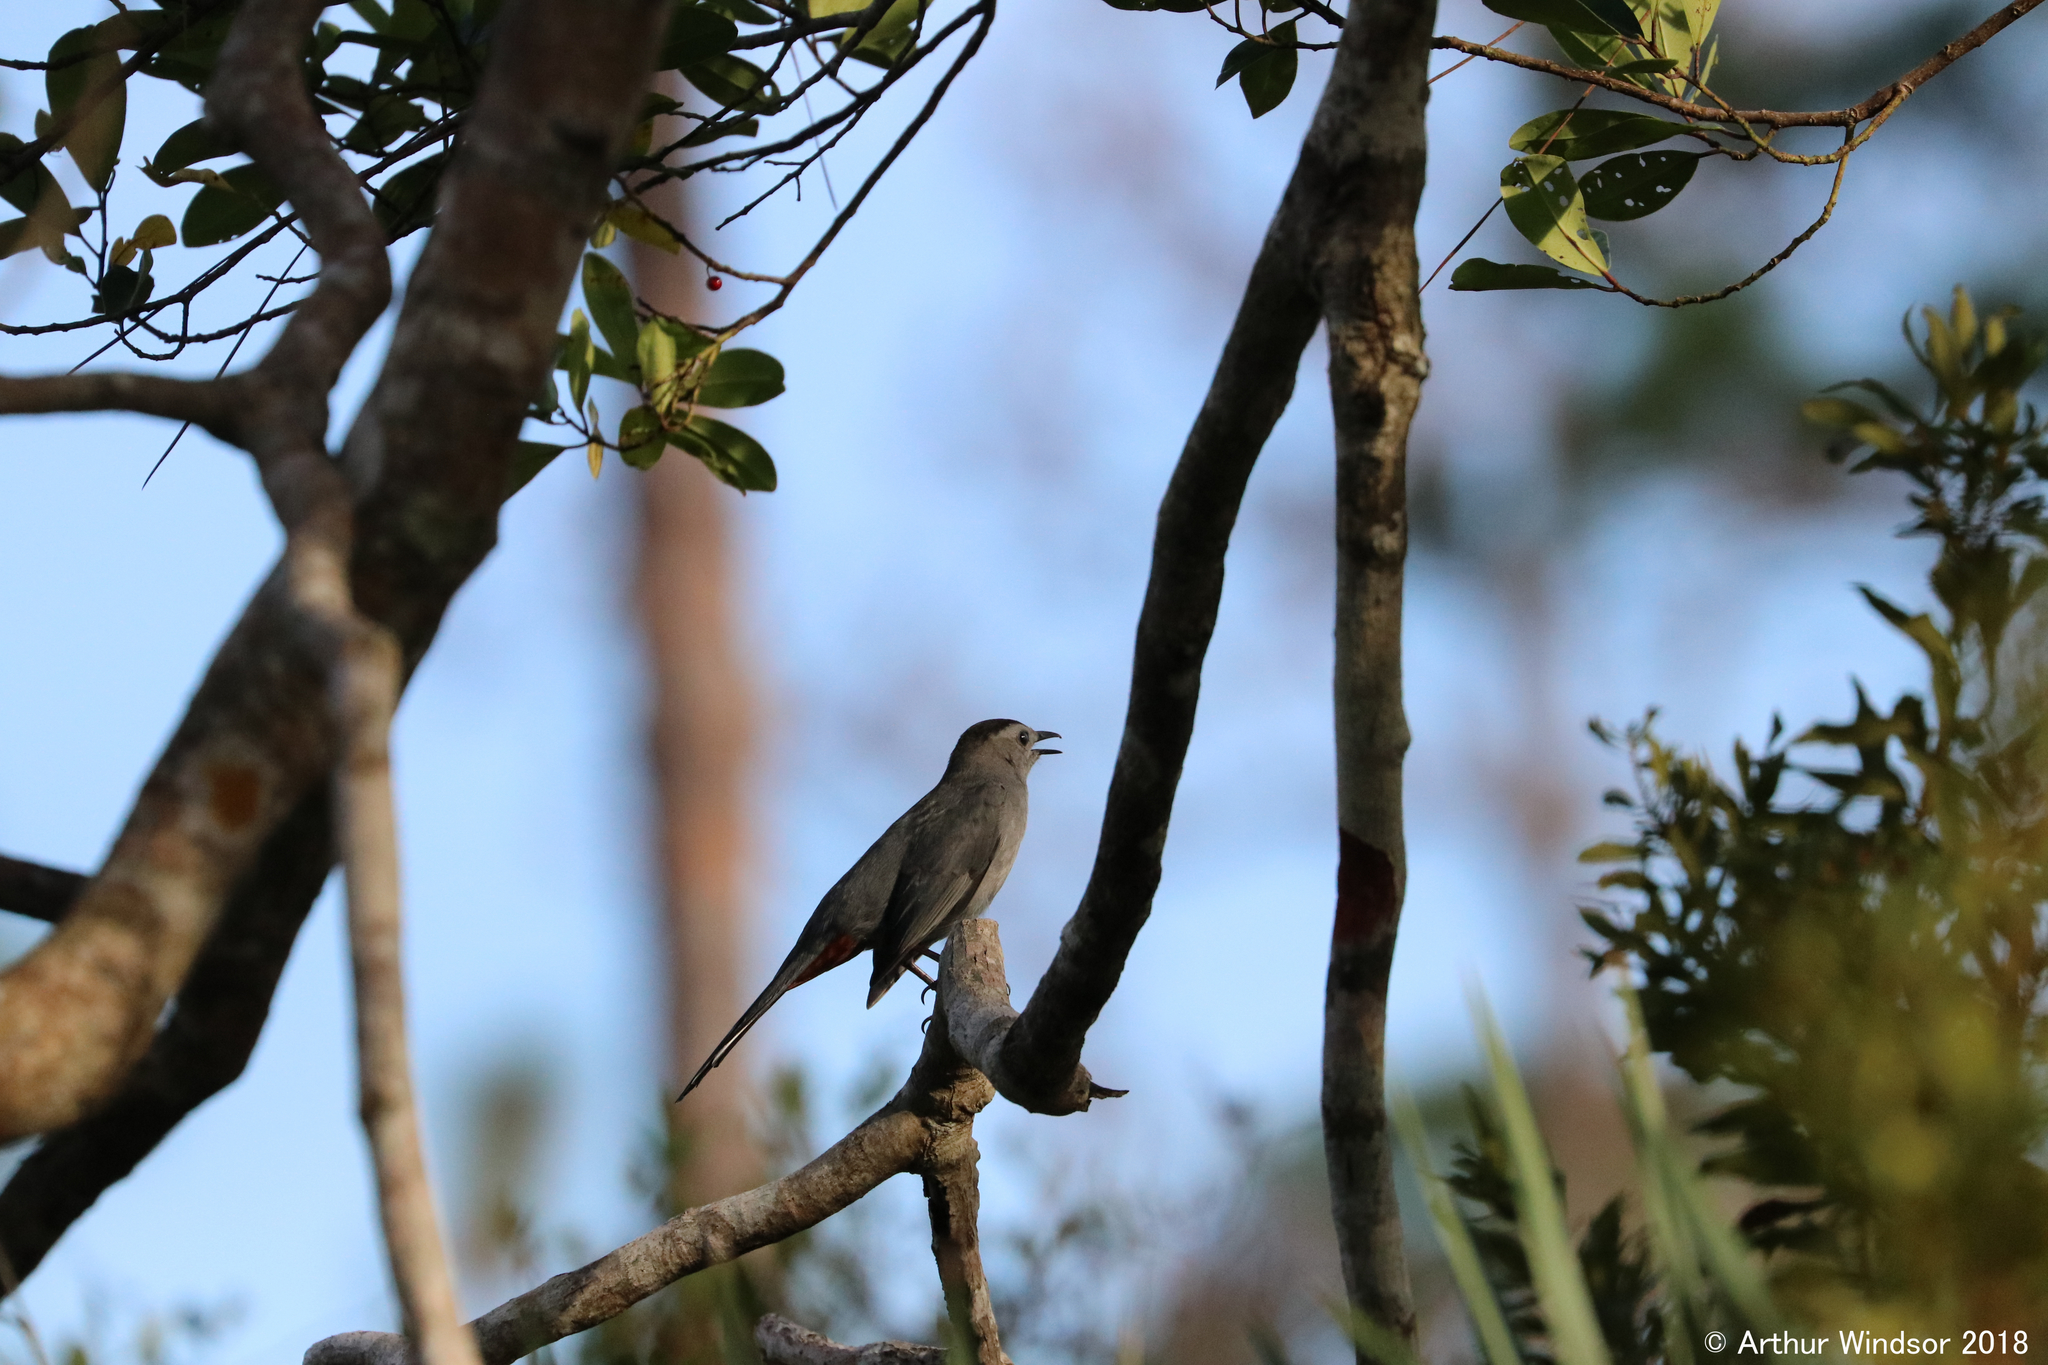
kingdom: Animalia
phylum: Chordata
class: Aves
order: Passeriformes
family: Mimidae
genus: Dumetella
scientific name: Dumetella carolinensis
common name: Gray catbird
